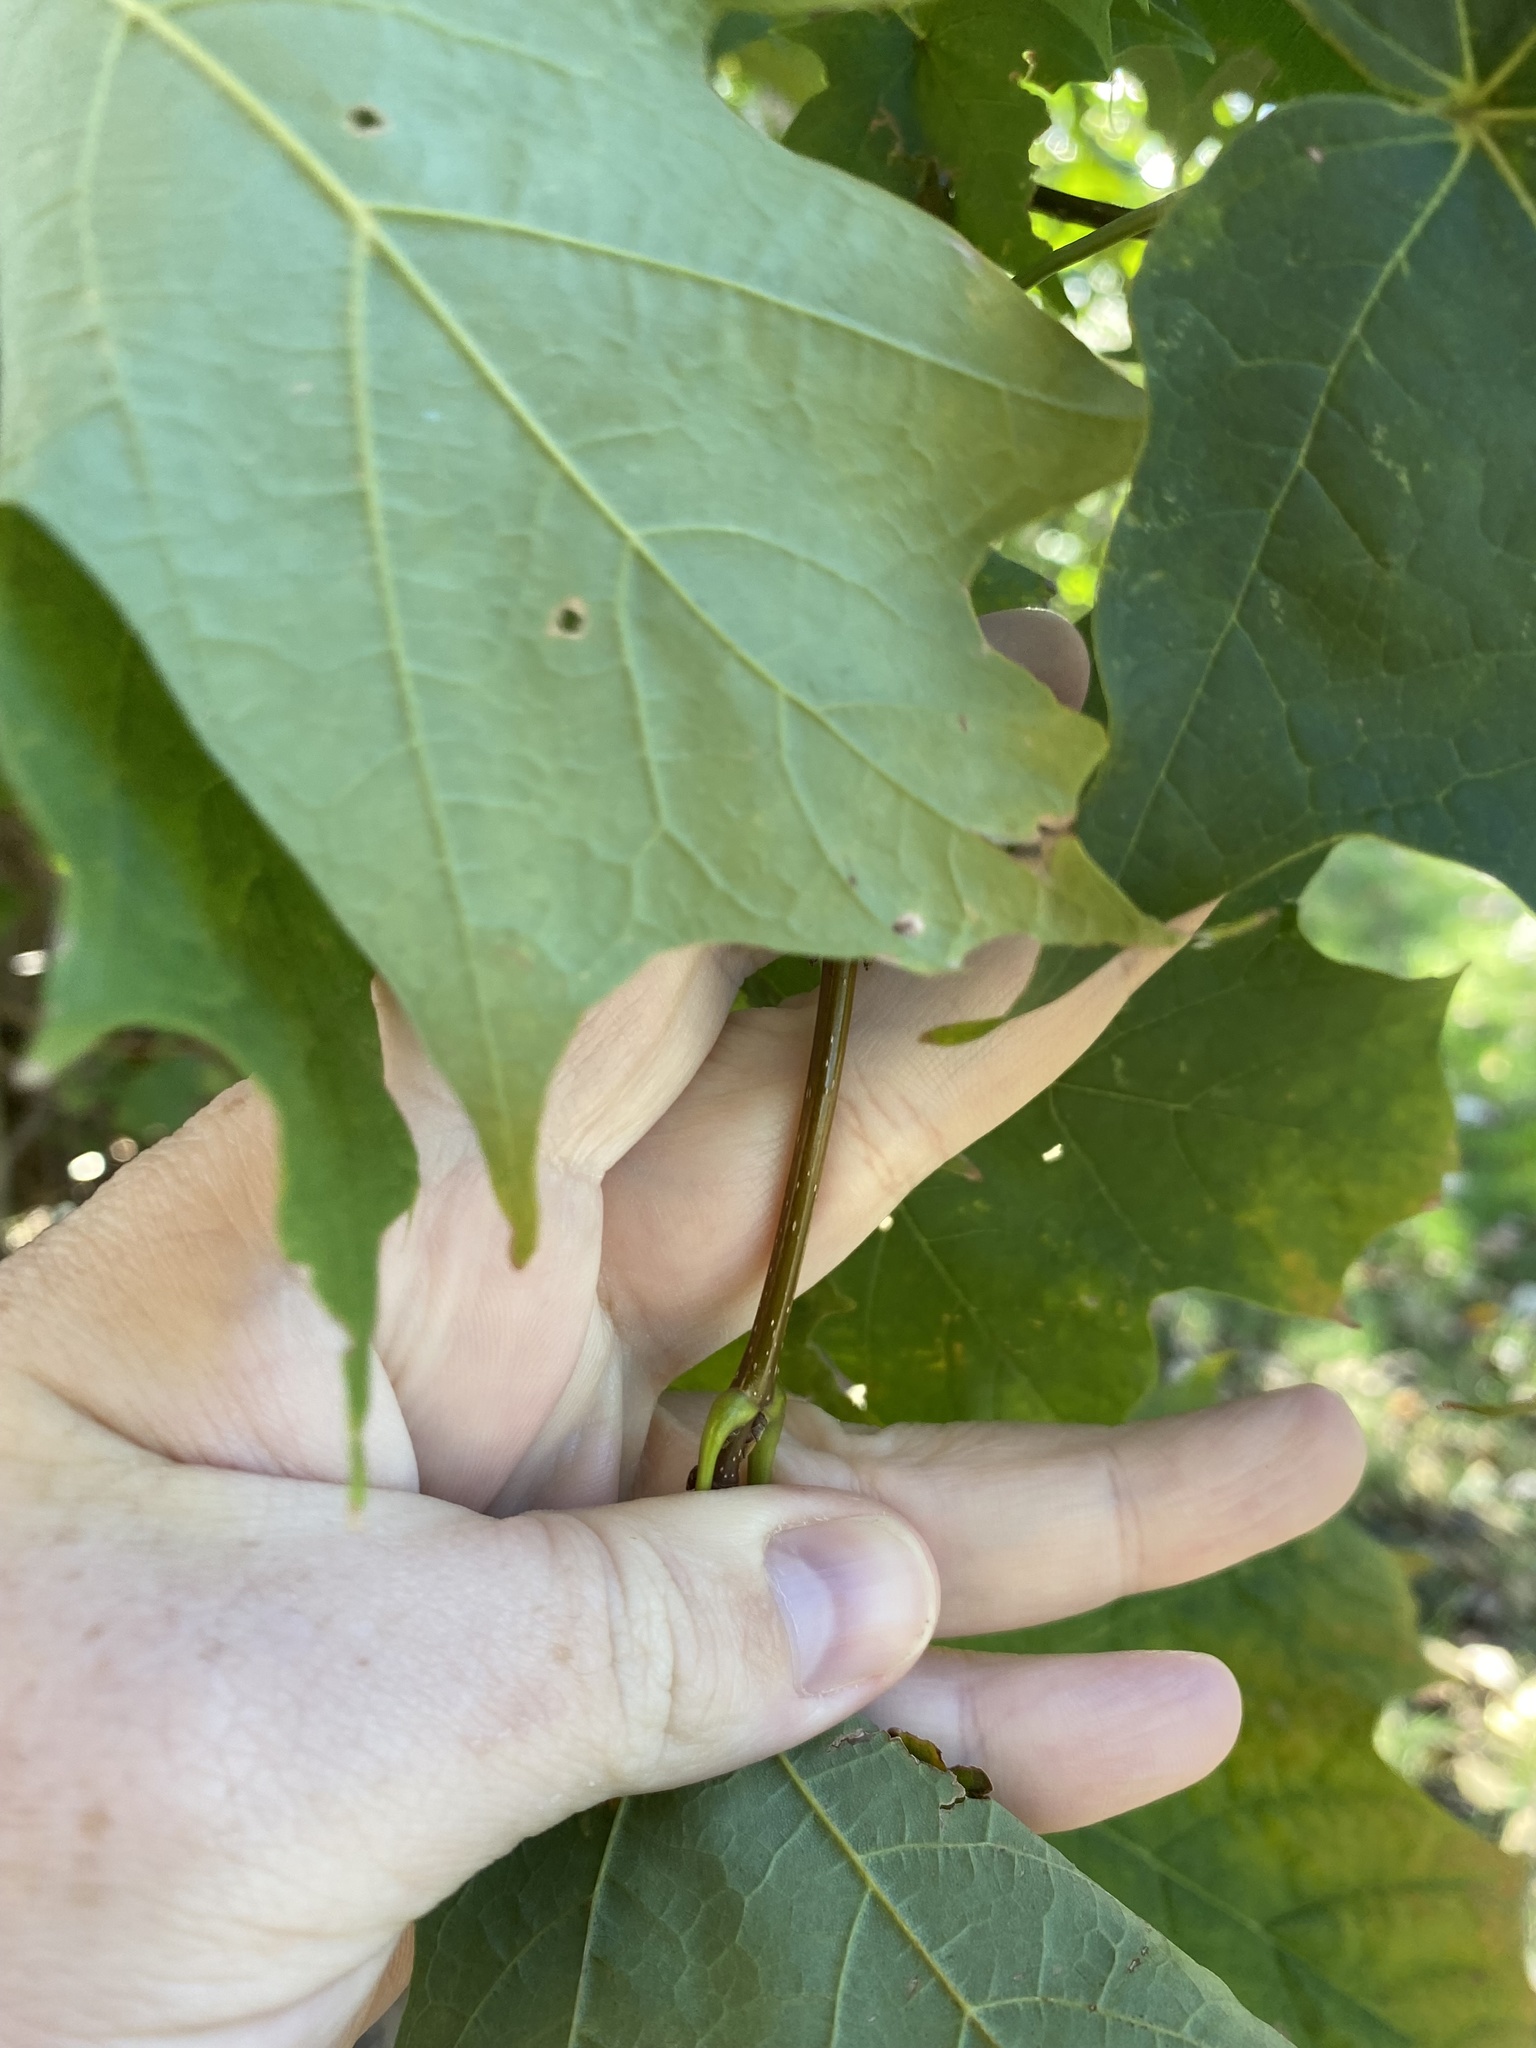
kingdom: Plantae
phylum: Tracheophyta
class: Magnoliopsida
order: Sapindales
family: Sapindaceae
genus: Acer
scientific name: Acer platanoides
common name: Norway maple
